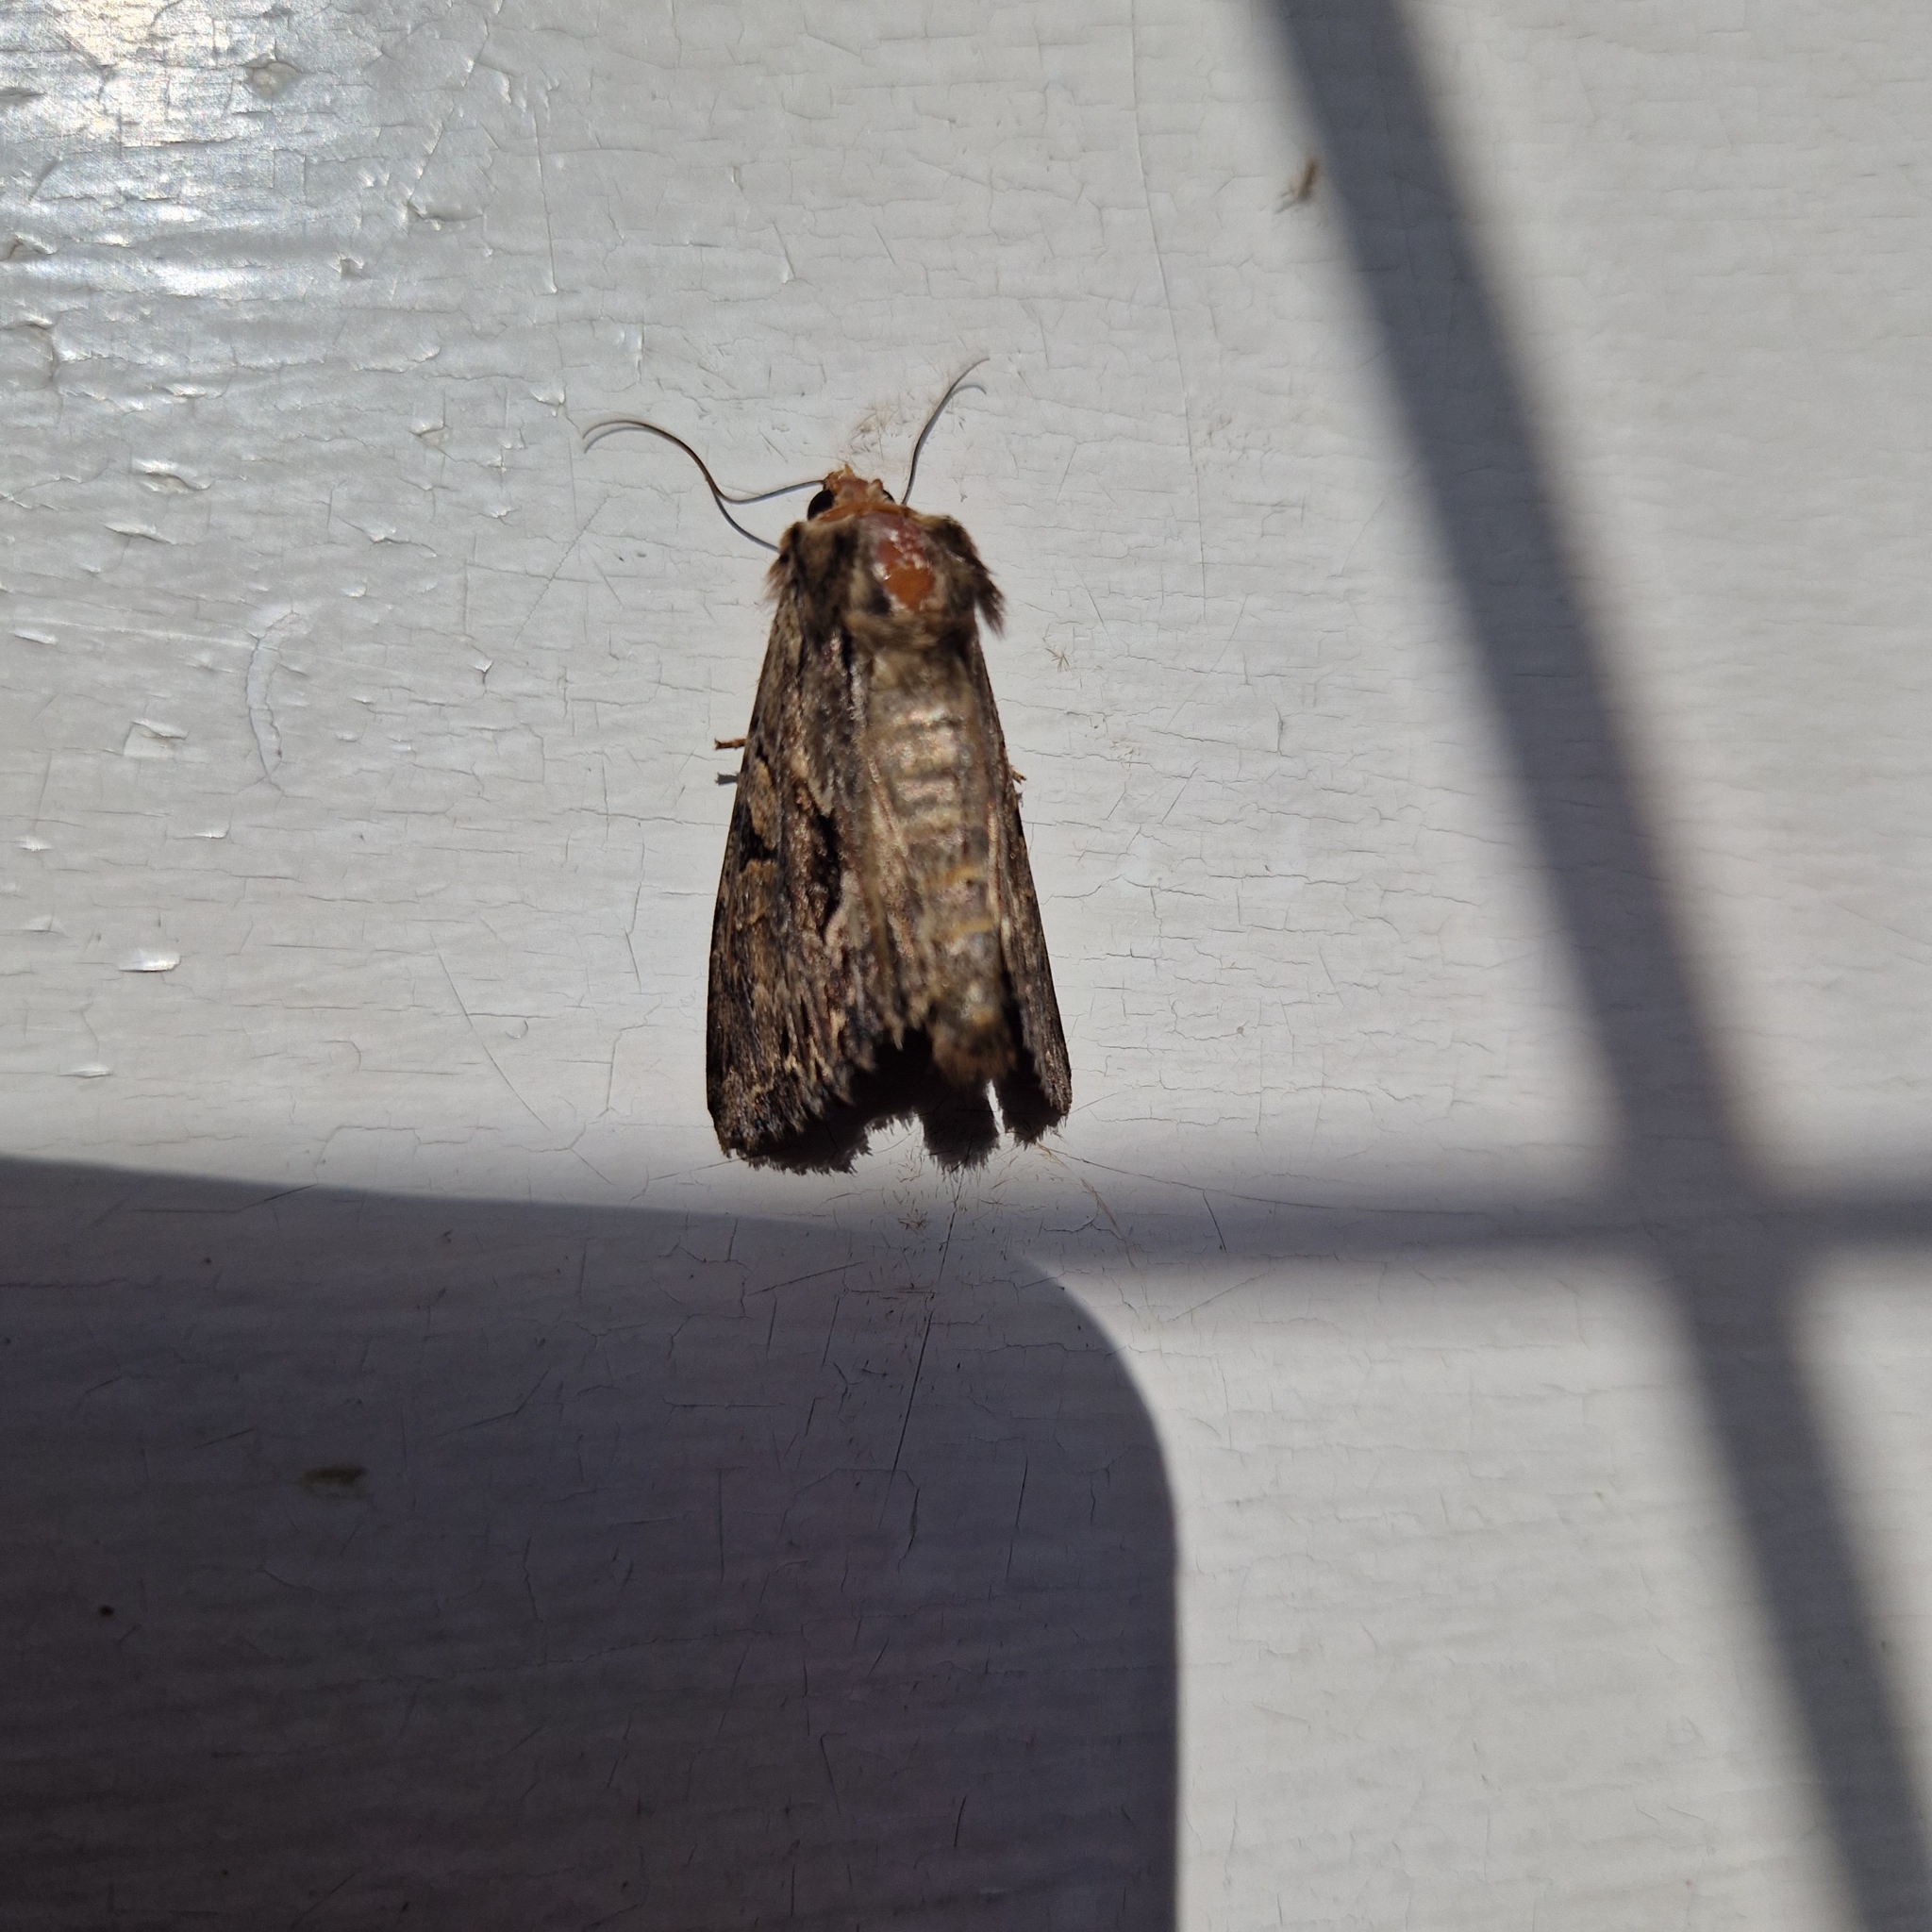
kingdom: Animalia
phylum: Arthropoda
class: Insecta
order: Lepidoptera
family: Noctuidae
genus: Apamea
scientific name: Apamea monoglypha
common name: Dark arches
